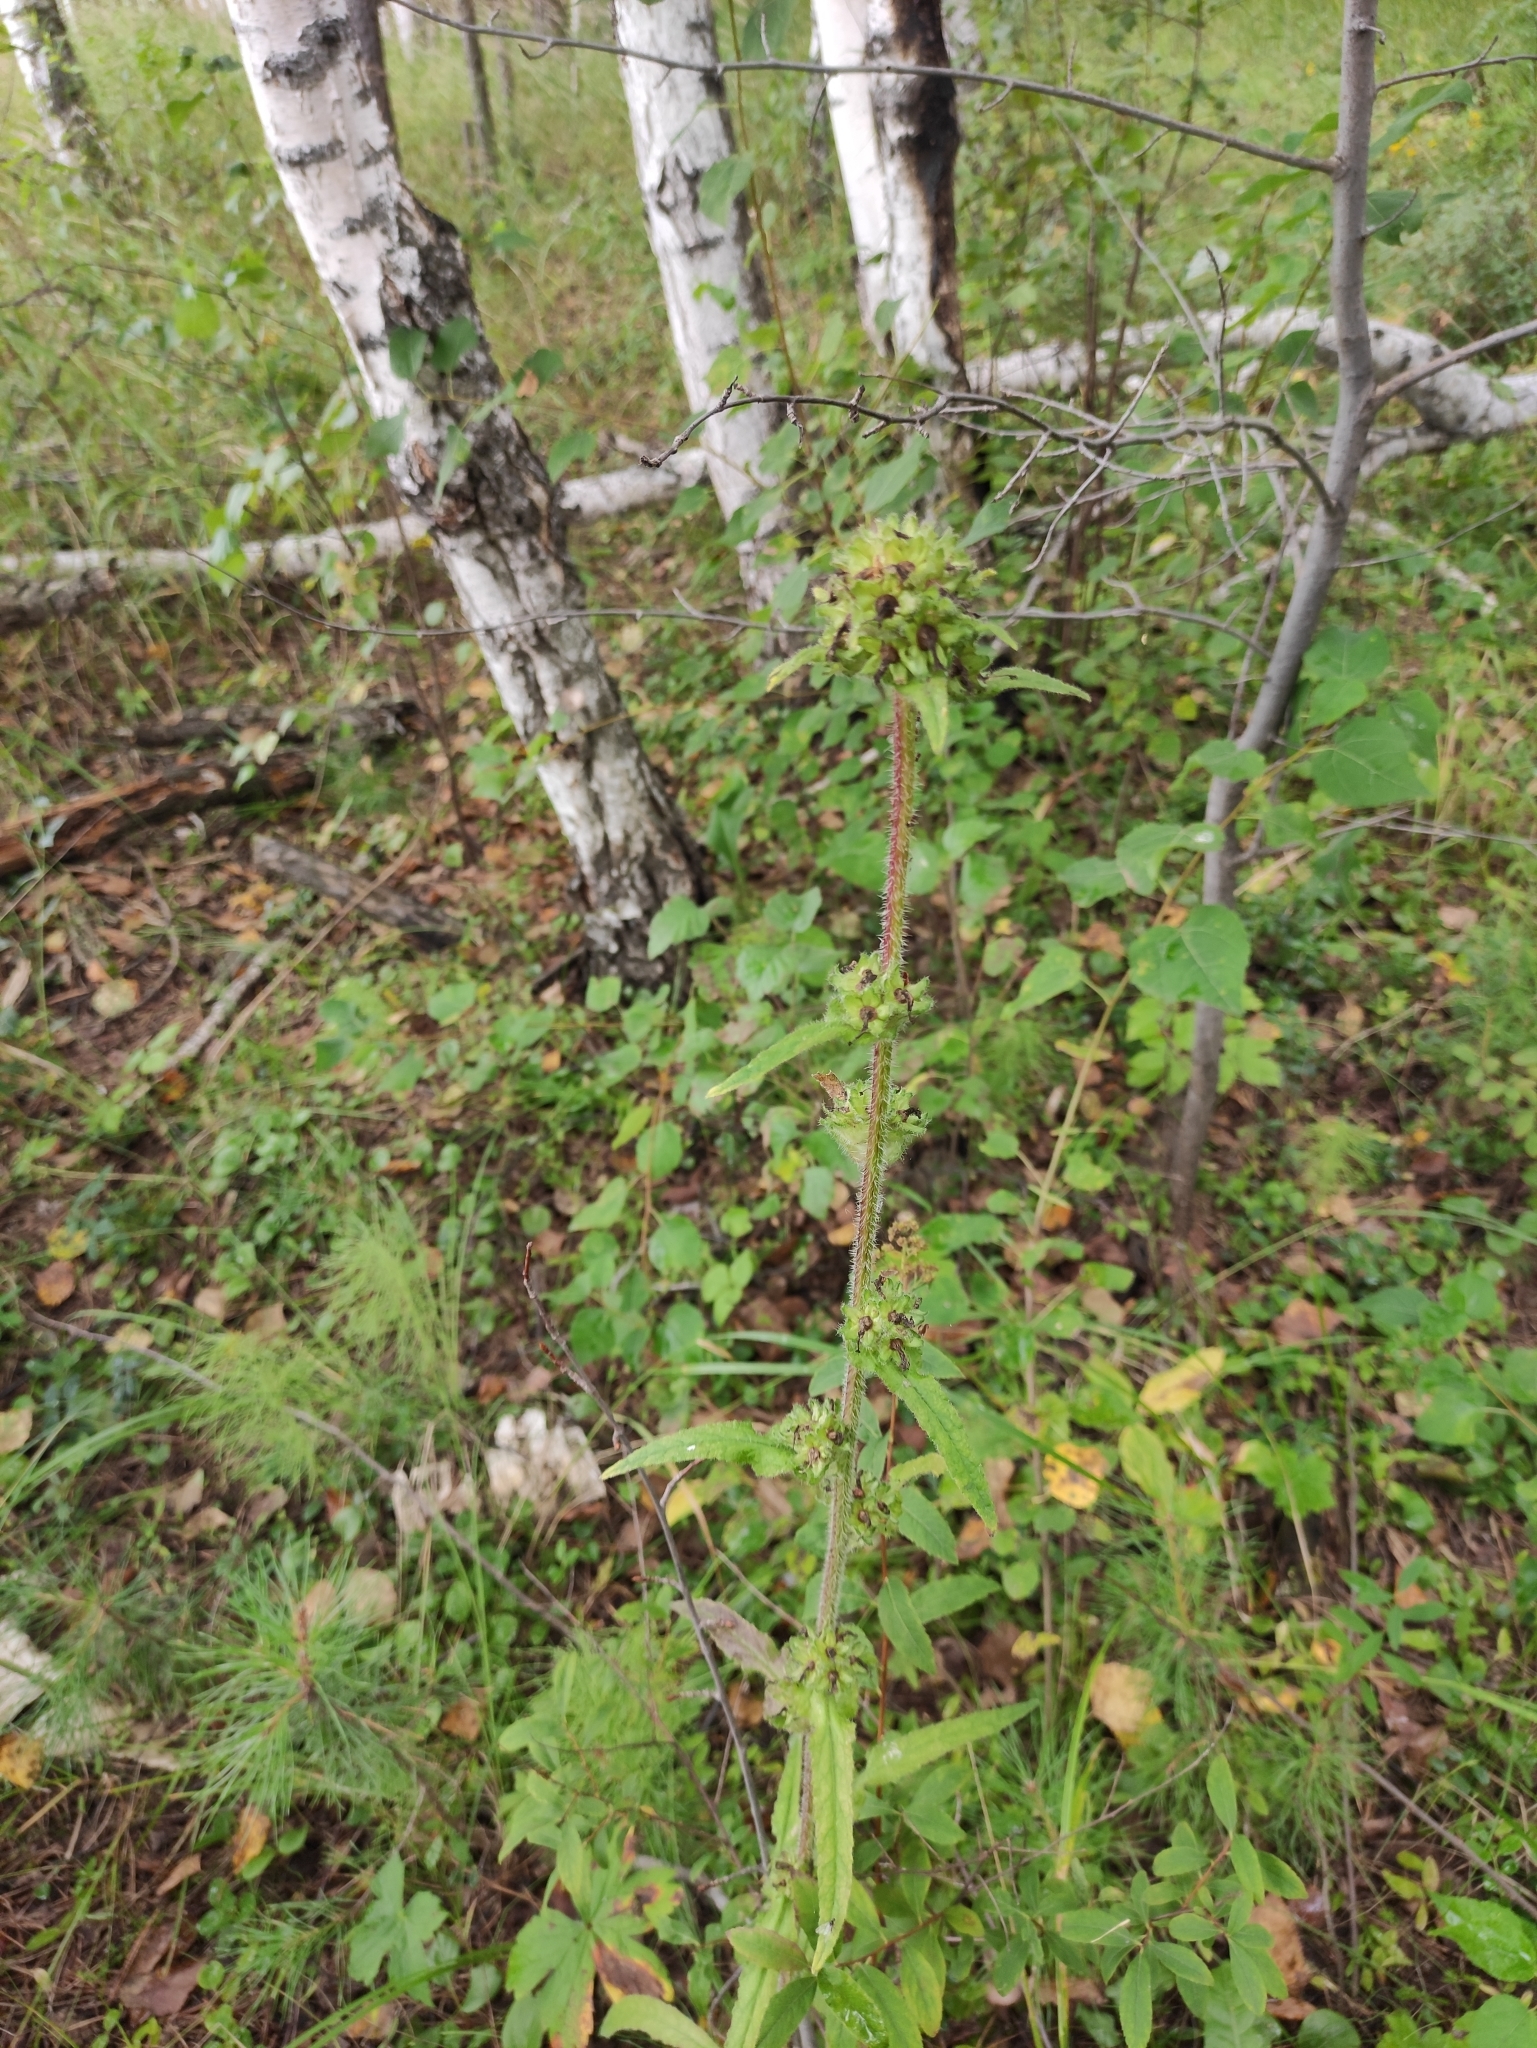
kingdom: Plantae
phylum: Tracheophyta
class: Magnoliopsida
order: Asterales
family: Campanulaceae
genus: Campanula
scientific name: Campanula cervicaria
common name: Bristly bellflower
